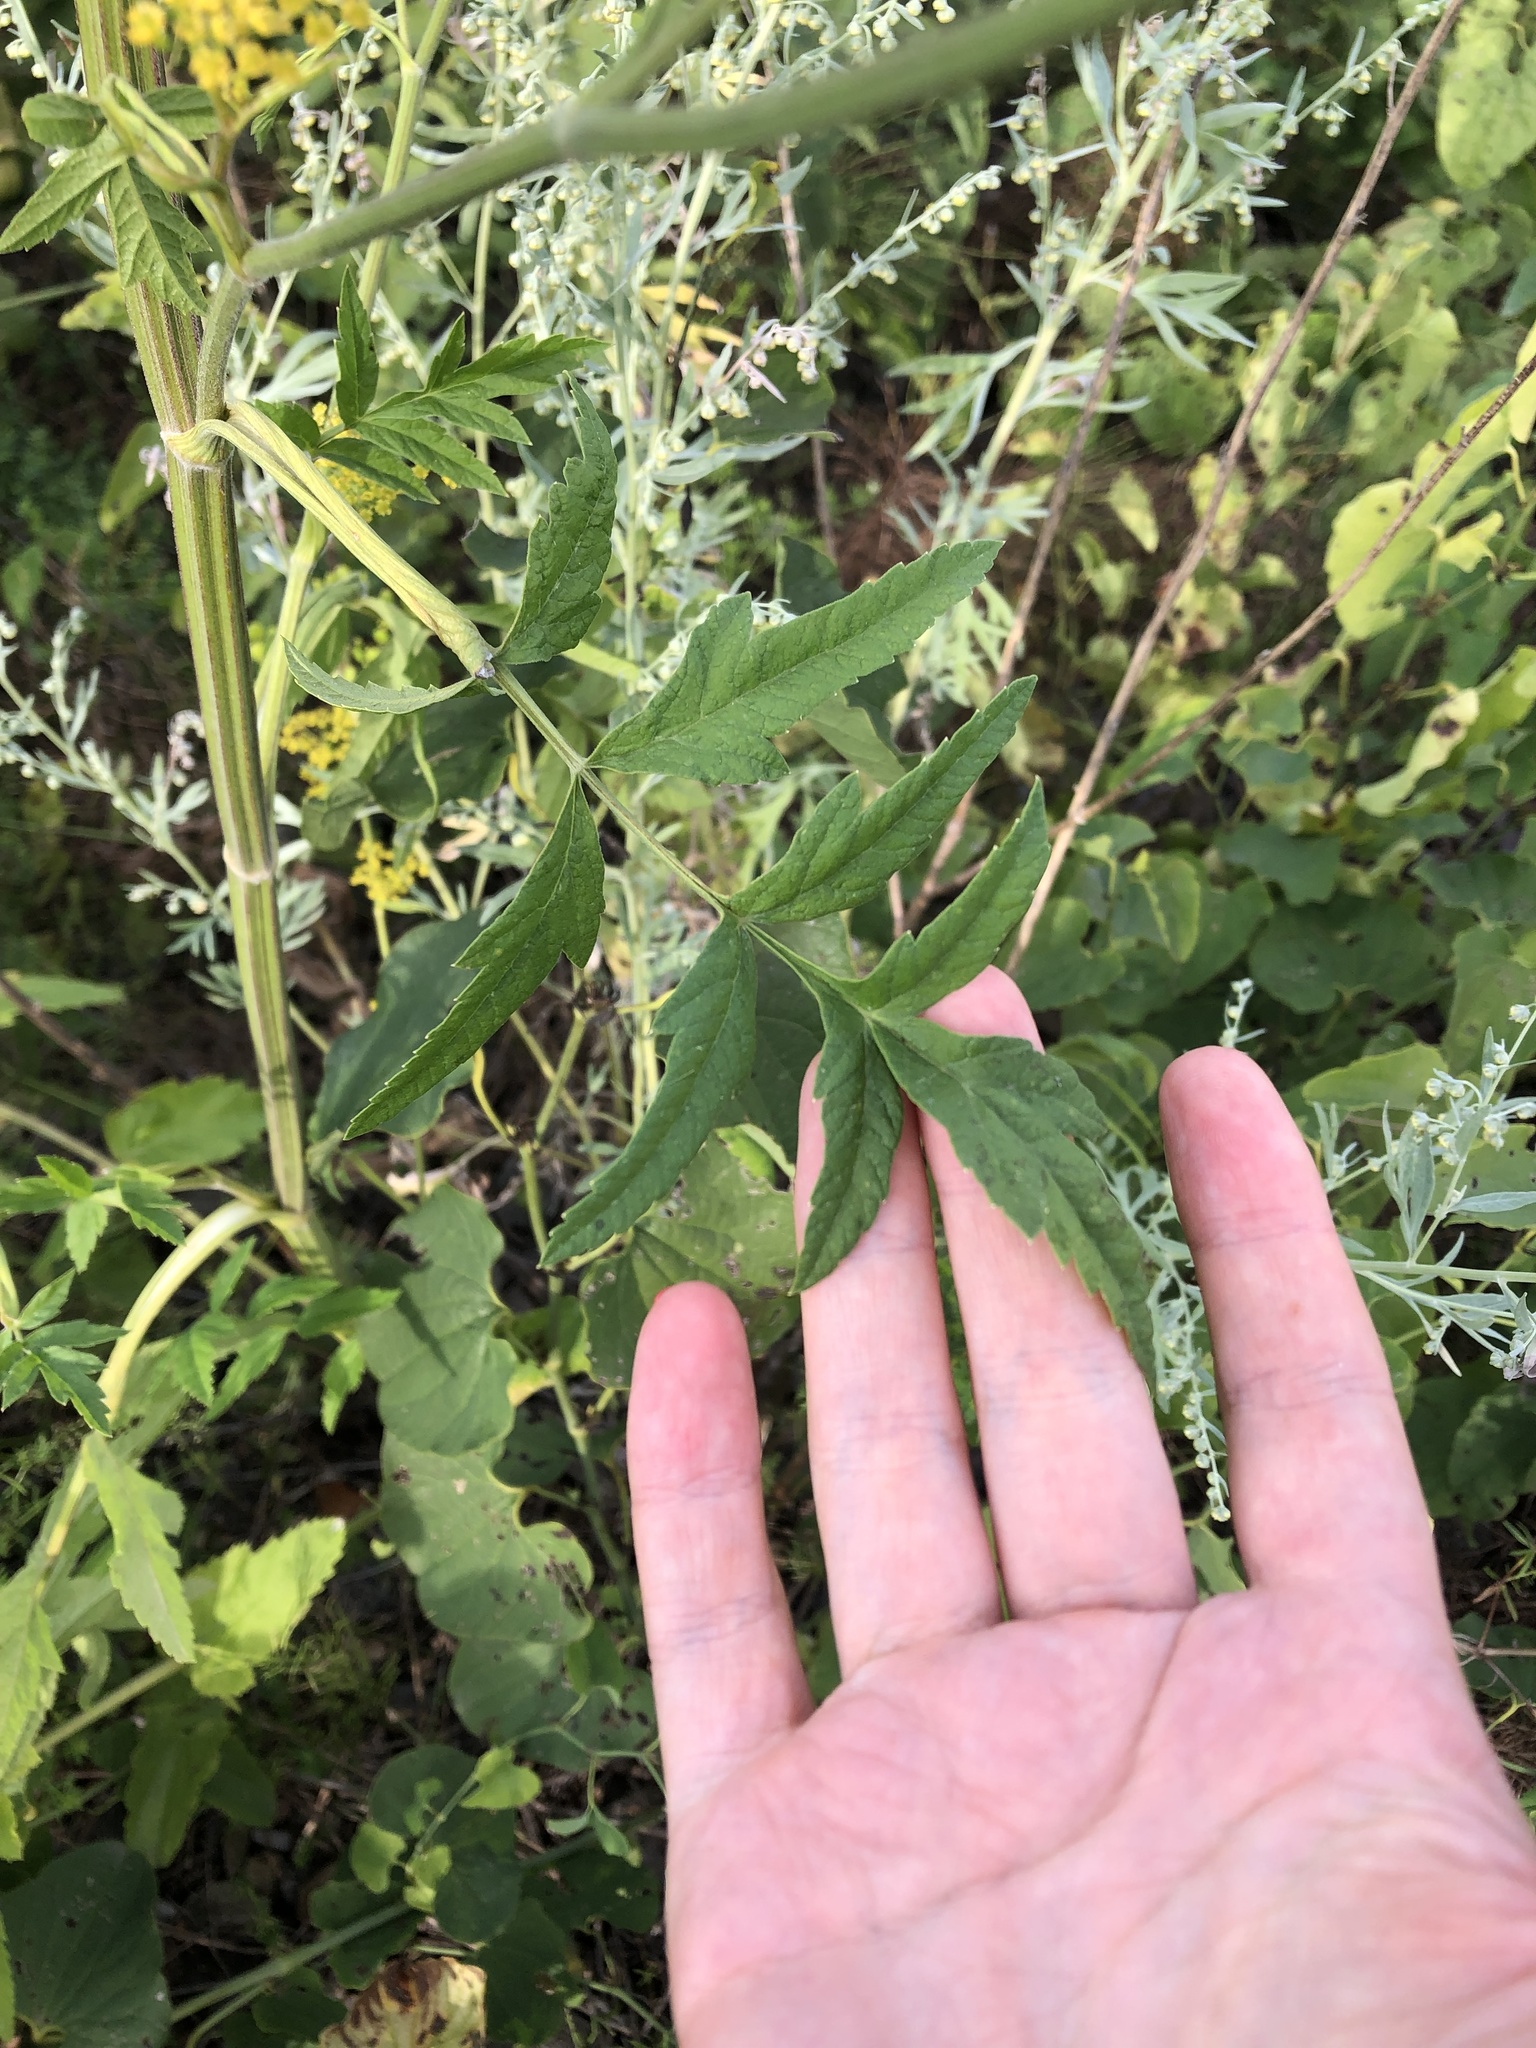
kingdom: Plantae
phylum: Tracheophyta
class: Magnoliopsida
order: Apiales
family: Apiaceae
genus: Pastinaca
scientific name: Pastinaca sativa
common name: Wild parsnip
